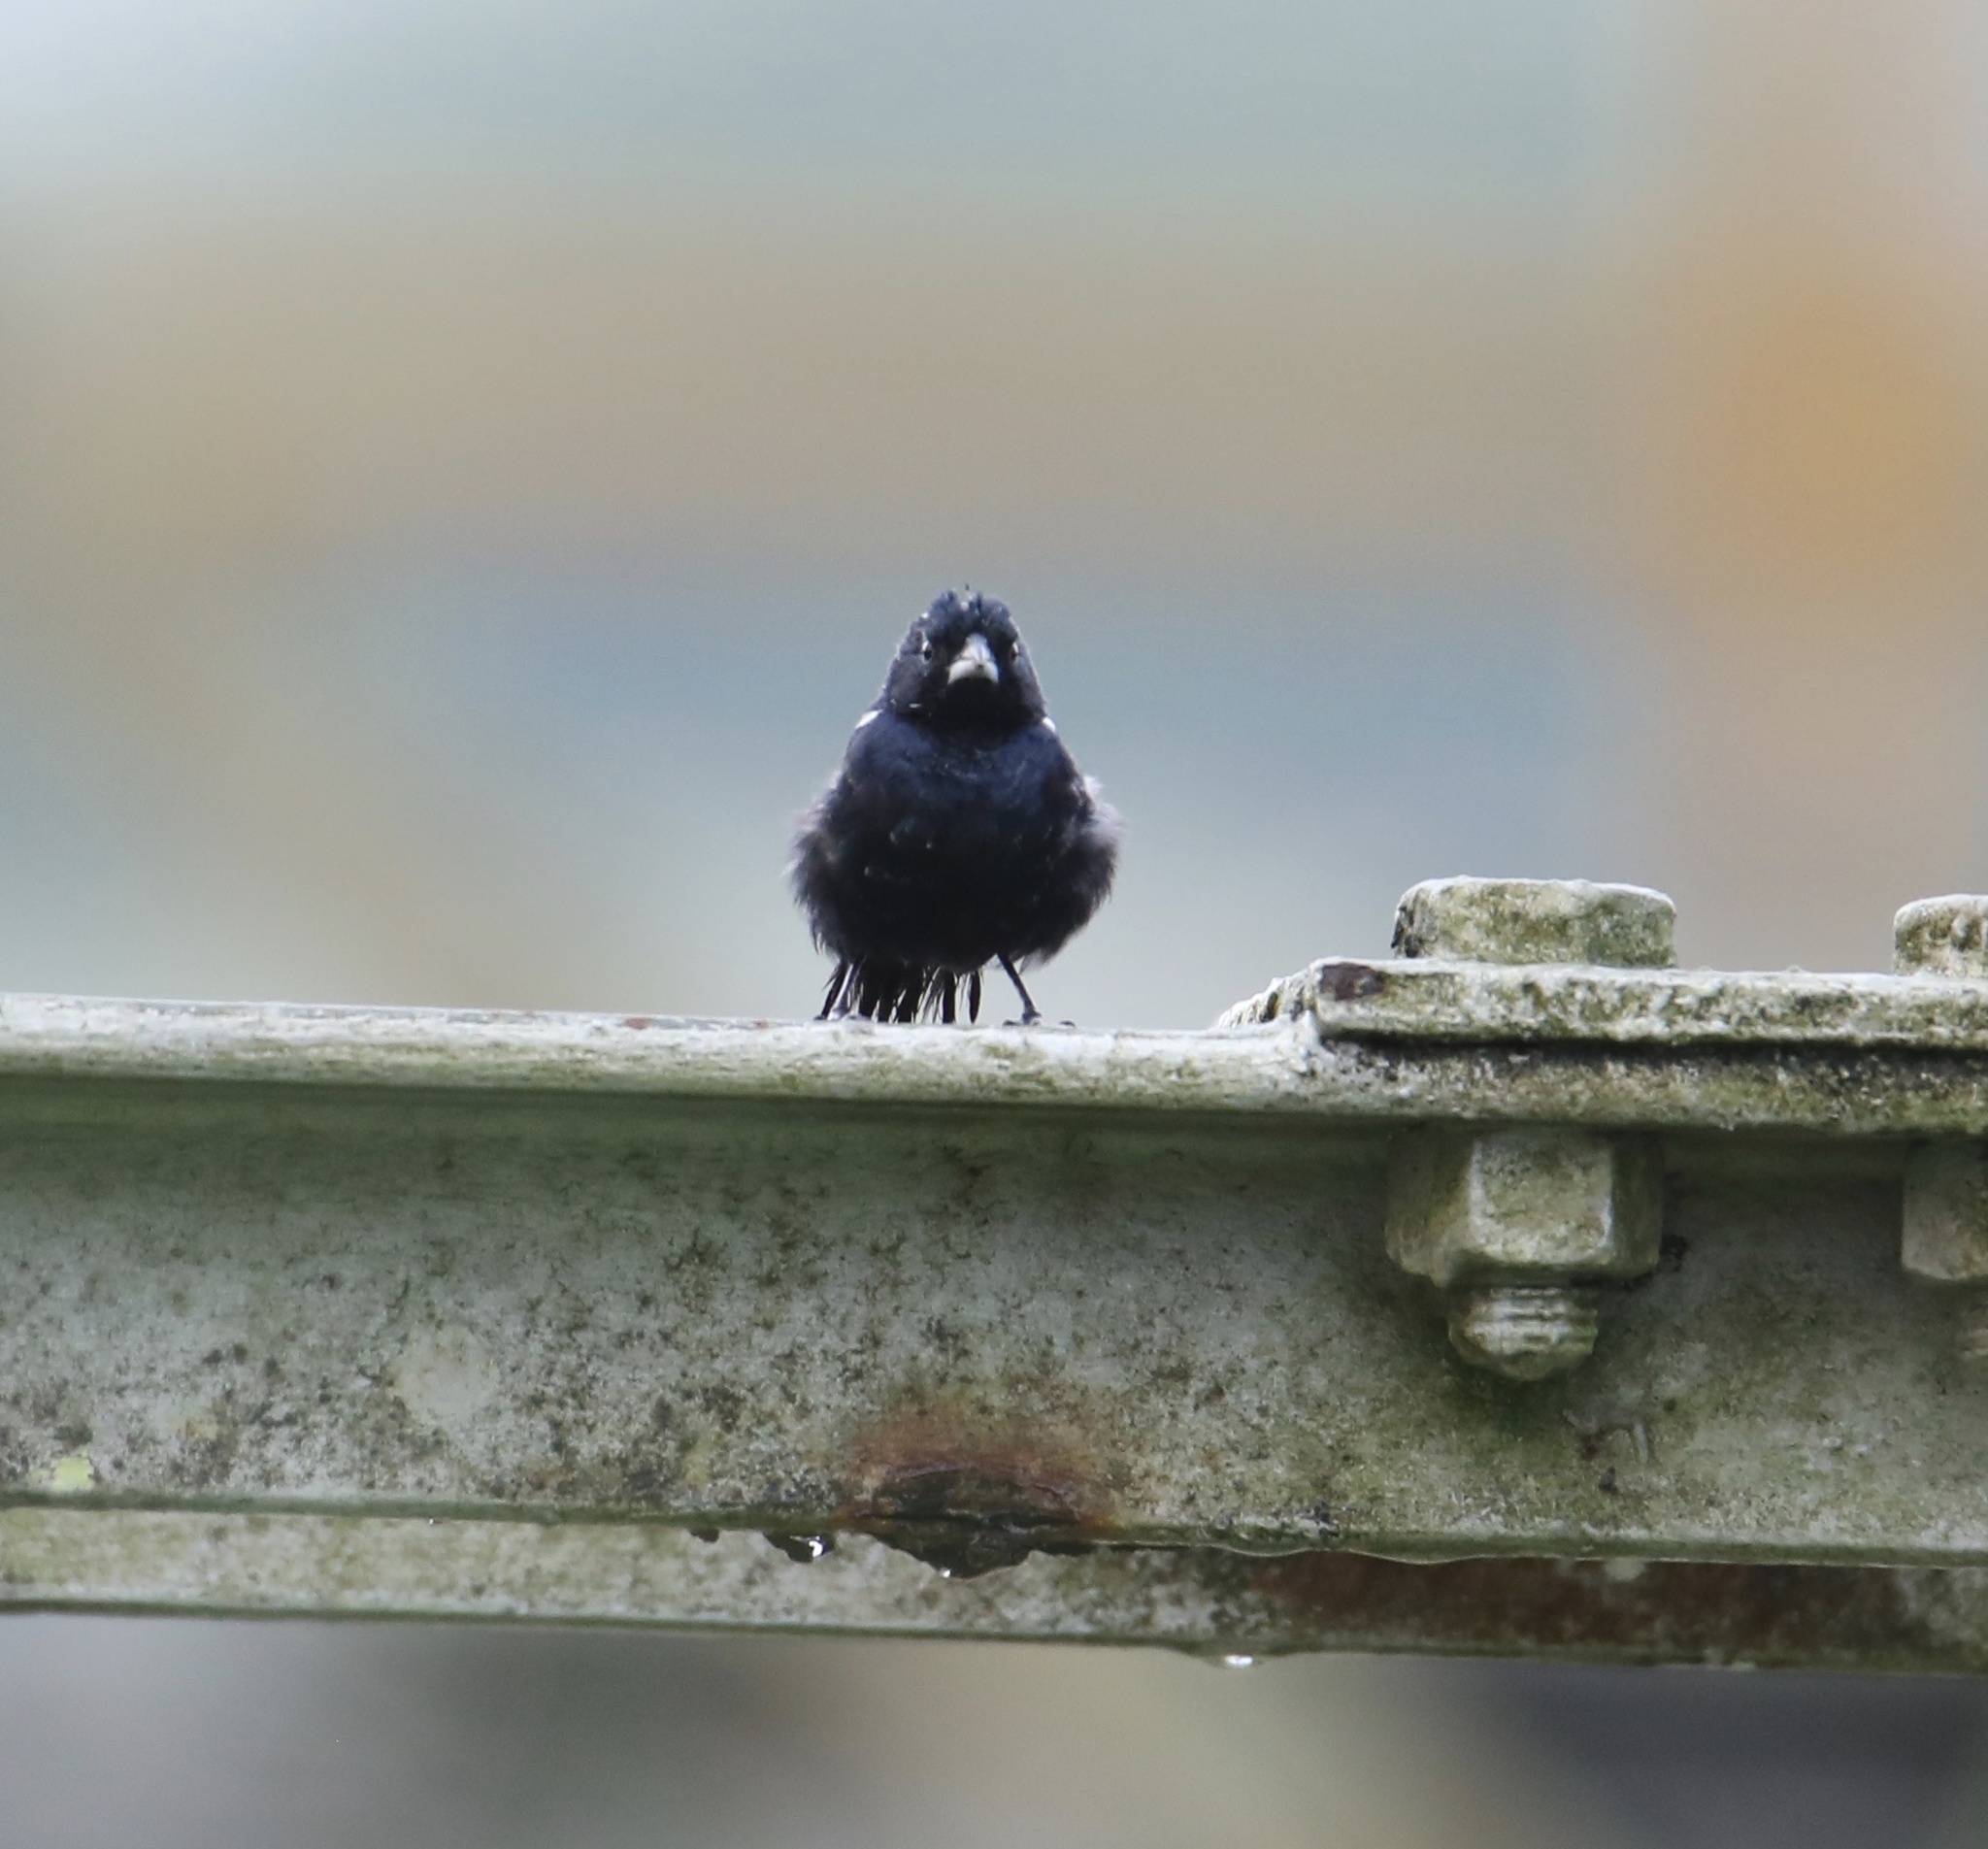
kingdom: Animalia
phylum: Chordata
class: Aves
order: Passeriformes
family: Thraupidae
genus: Volatinia
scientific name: Volatinia jacarina
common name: Blue-black grassquit
